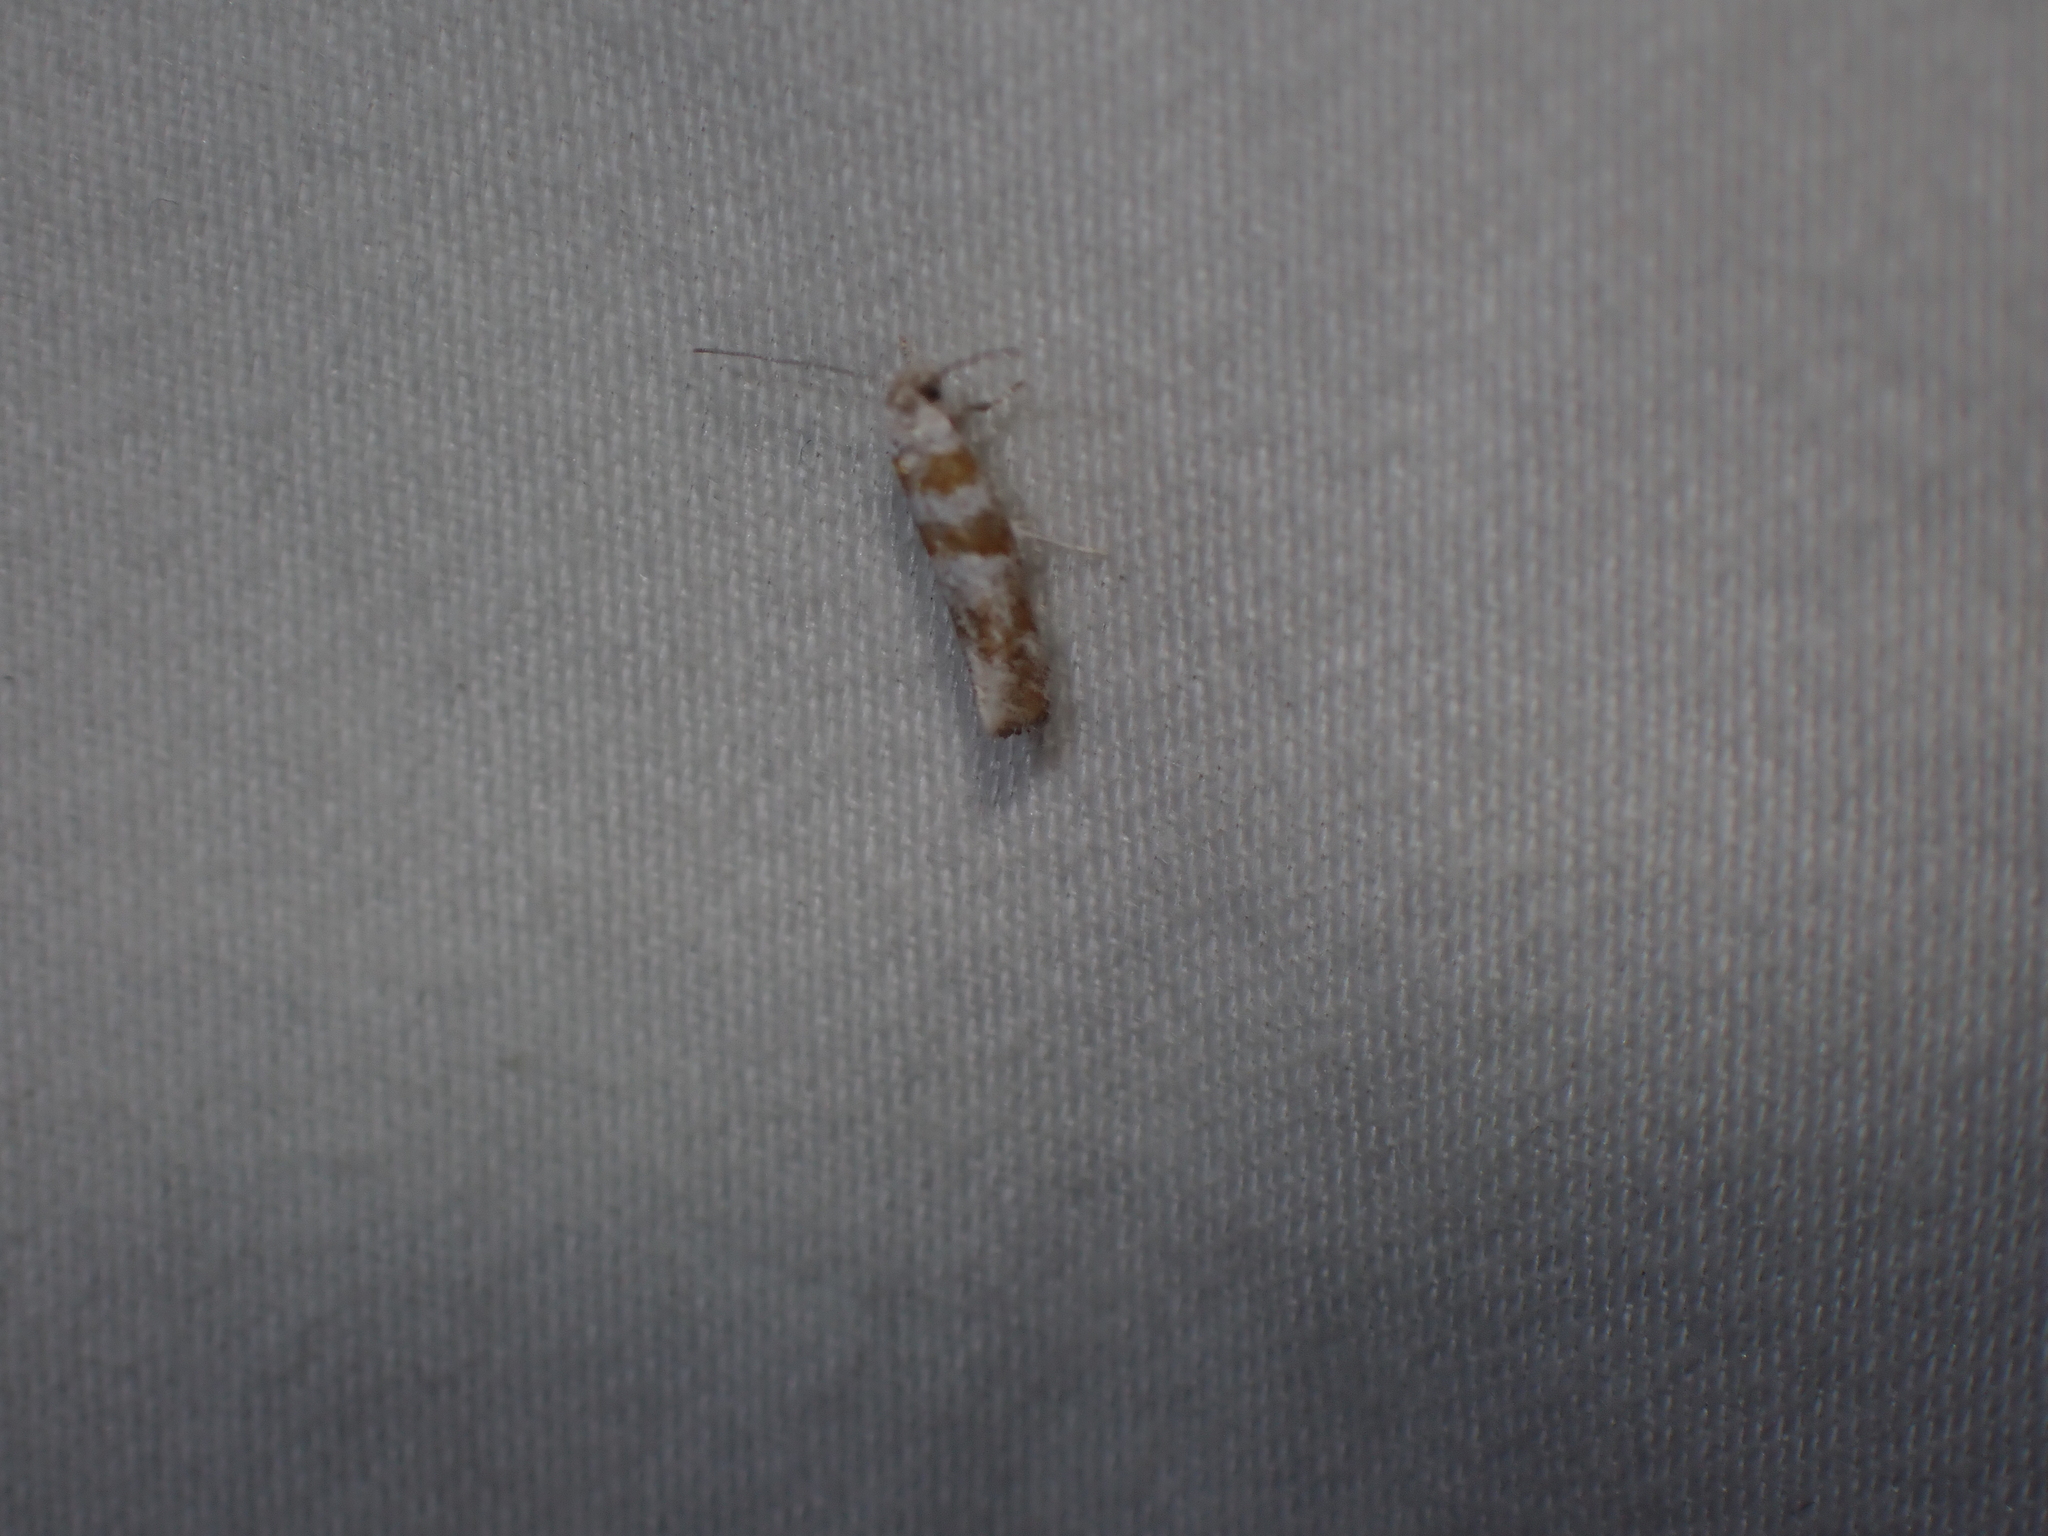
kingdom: Animalia
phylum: Arthropoda
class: Insecta
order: Lepidoptera
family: Yponomeutidae
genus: Cedestis
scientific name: Cedestis gysseleniella
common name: Gold pine ermel
